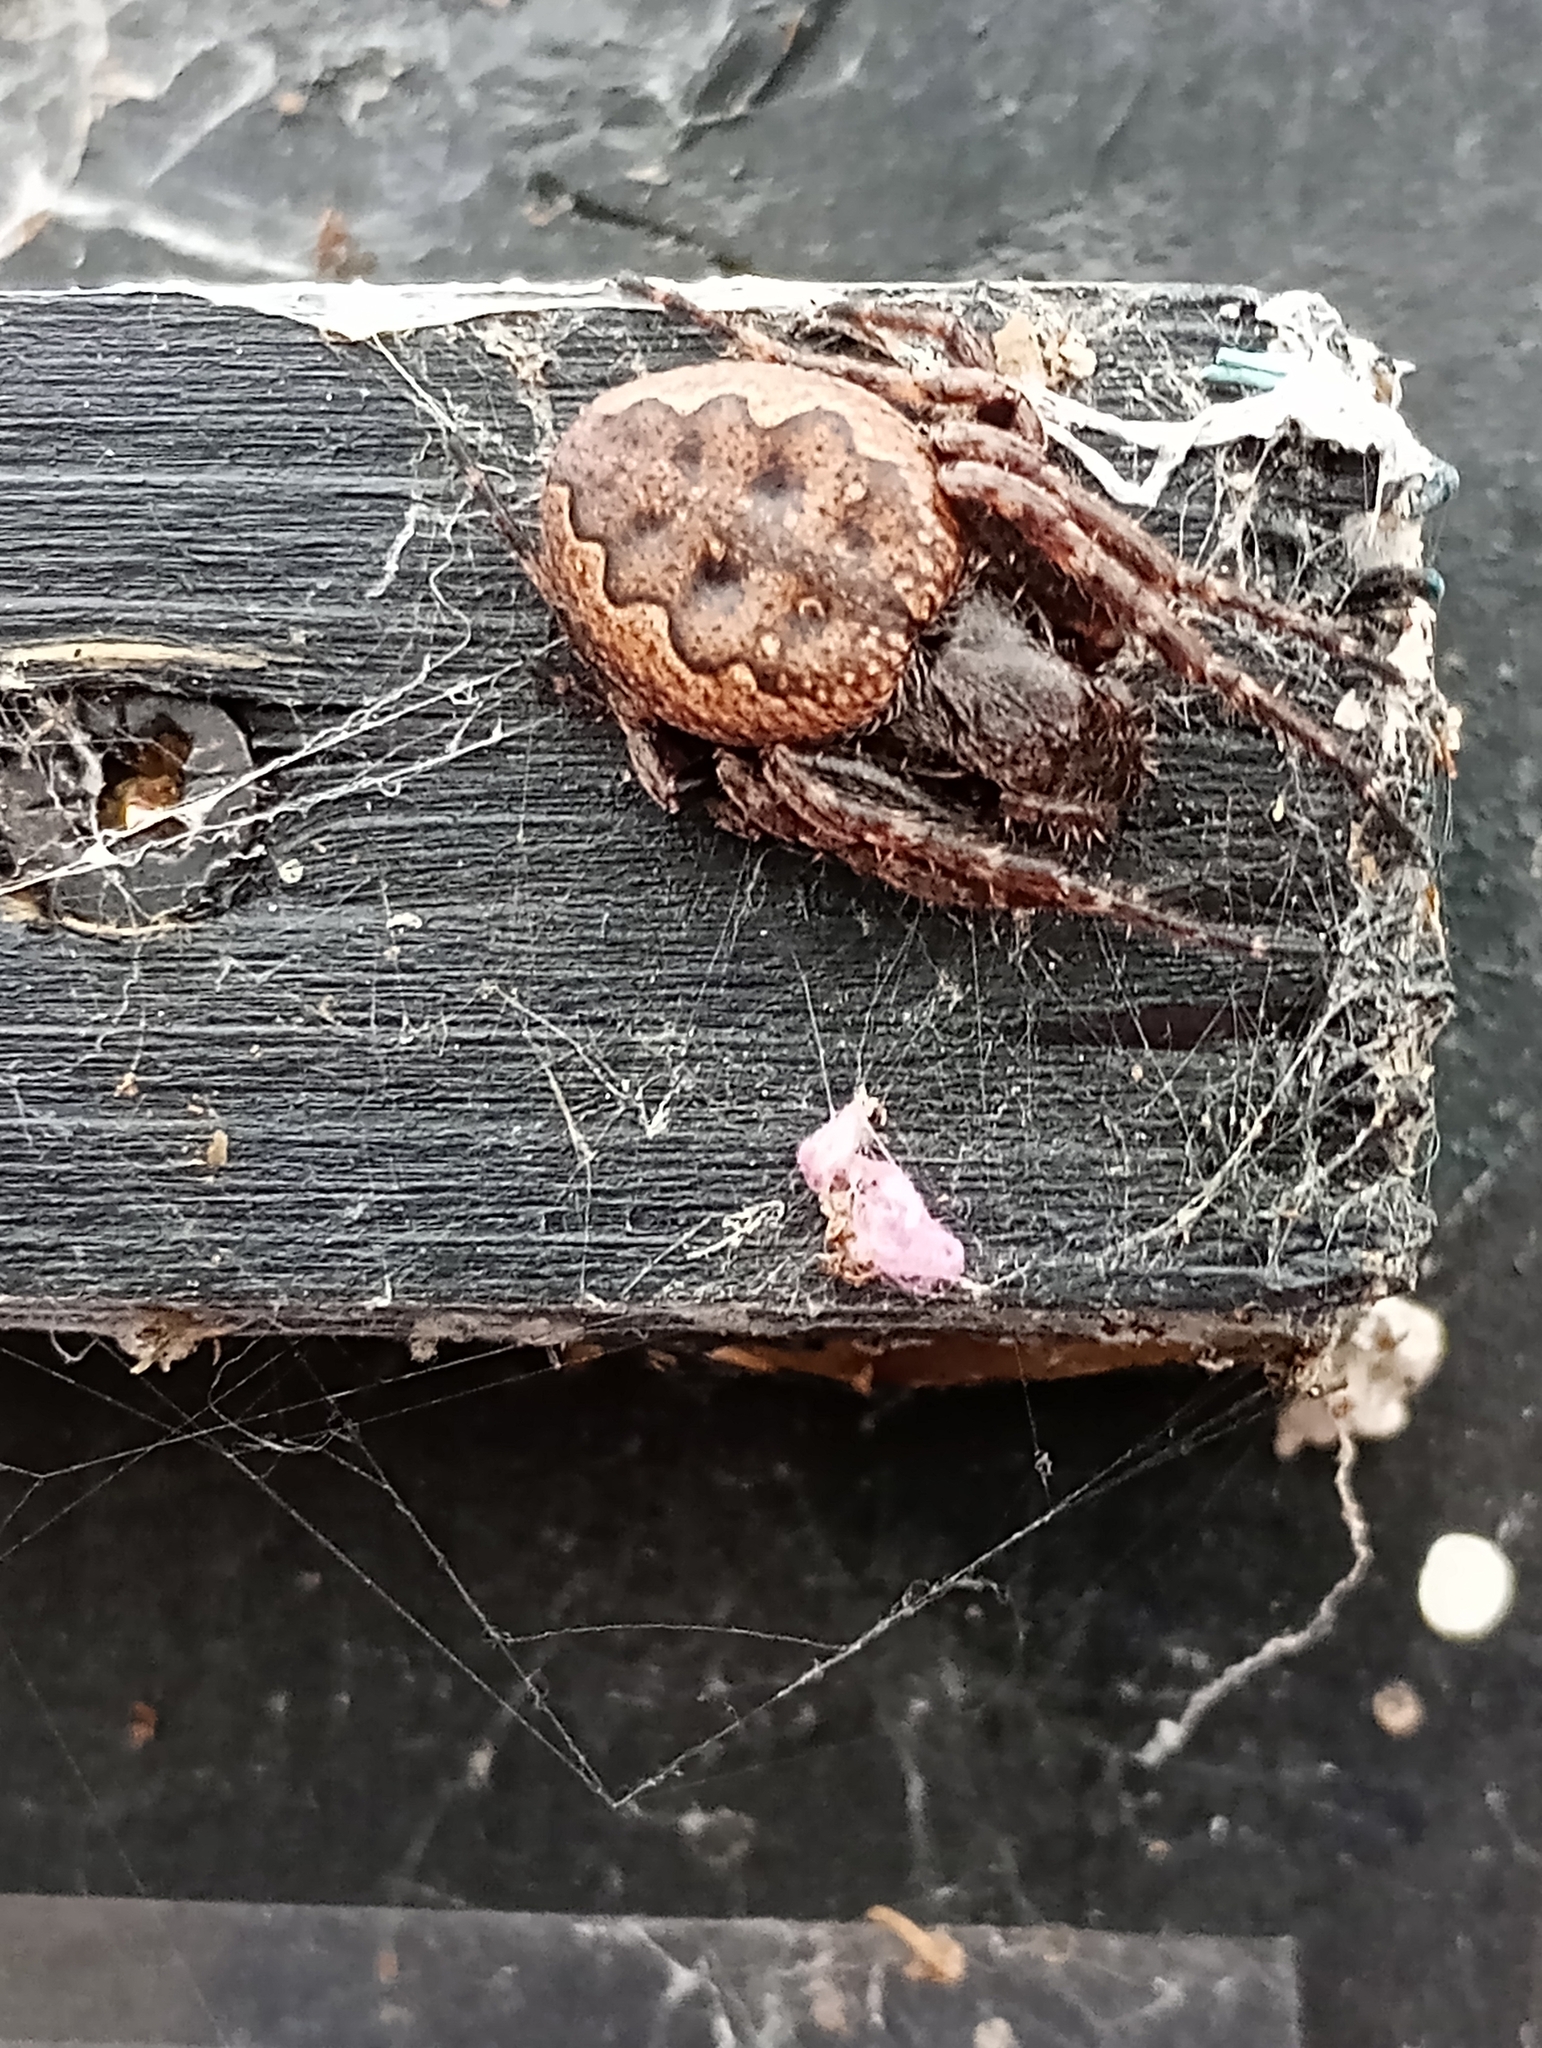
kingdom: Animalia
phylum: Arthropoda
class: Arachnida
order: Araneae
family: Araneidae
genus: Nuctenea
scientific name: Nuctenea umbratica
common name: Toad spider
